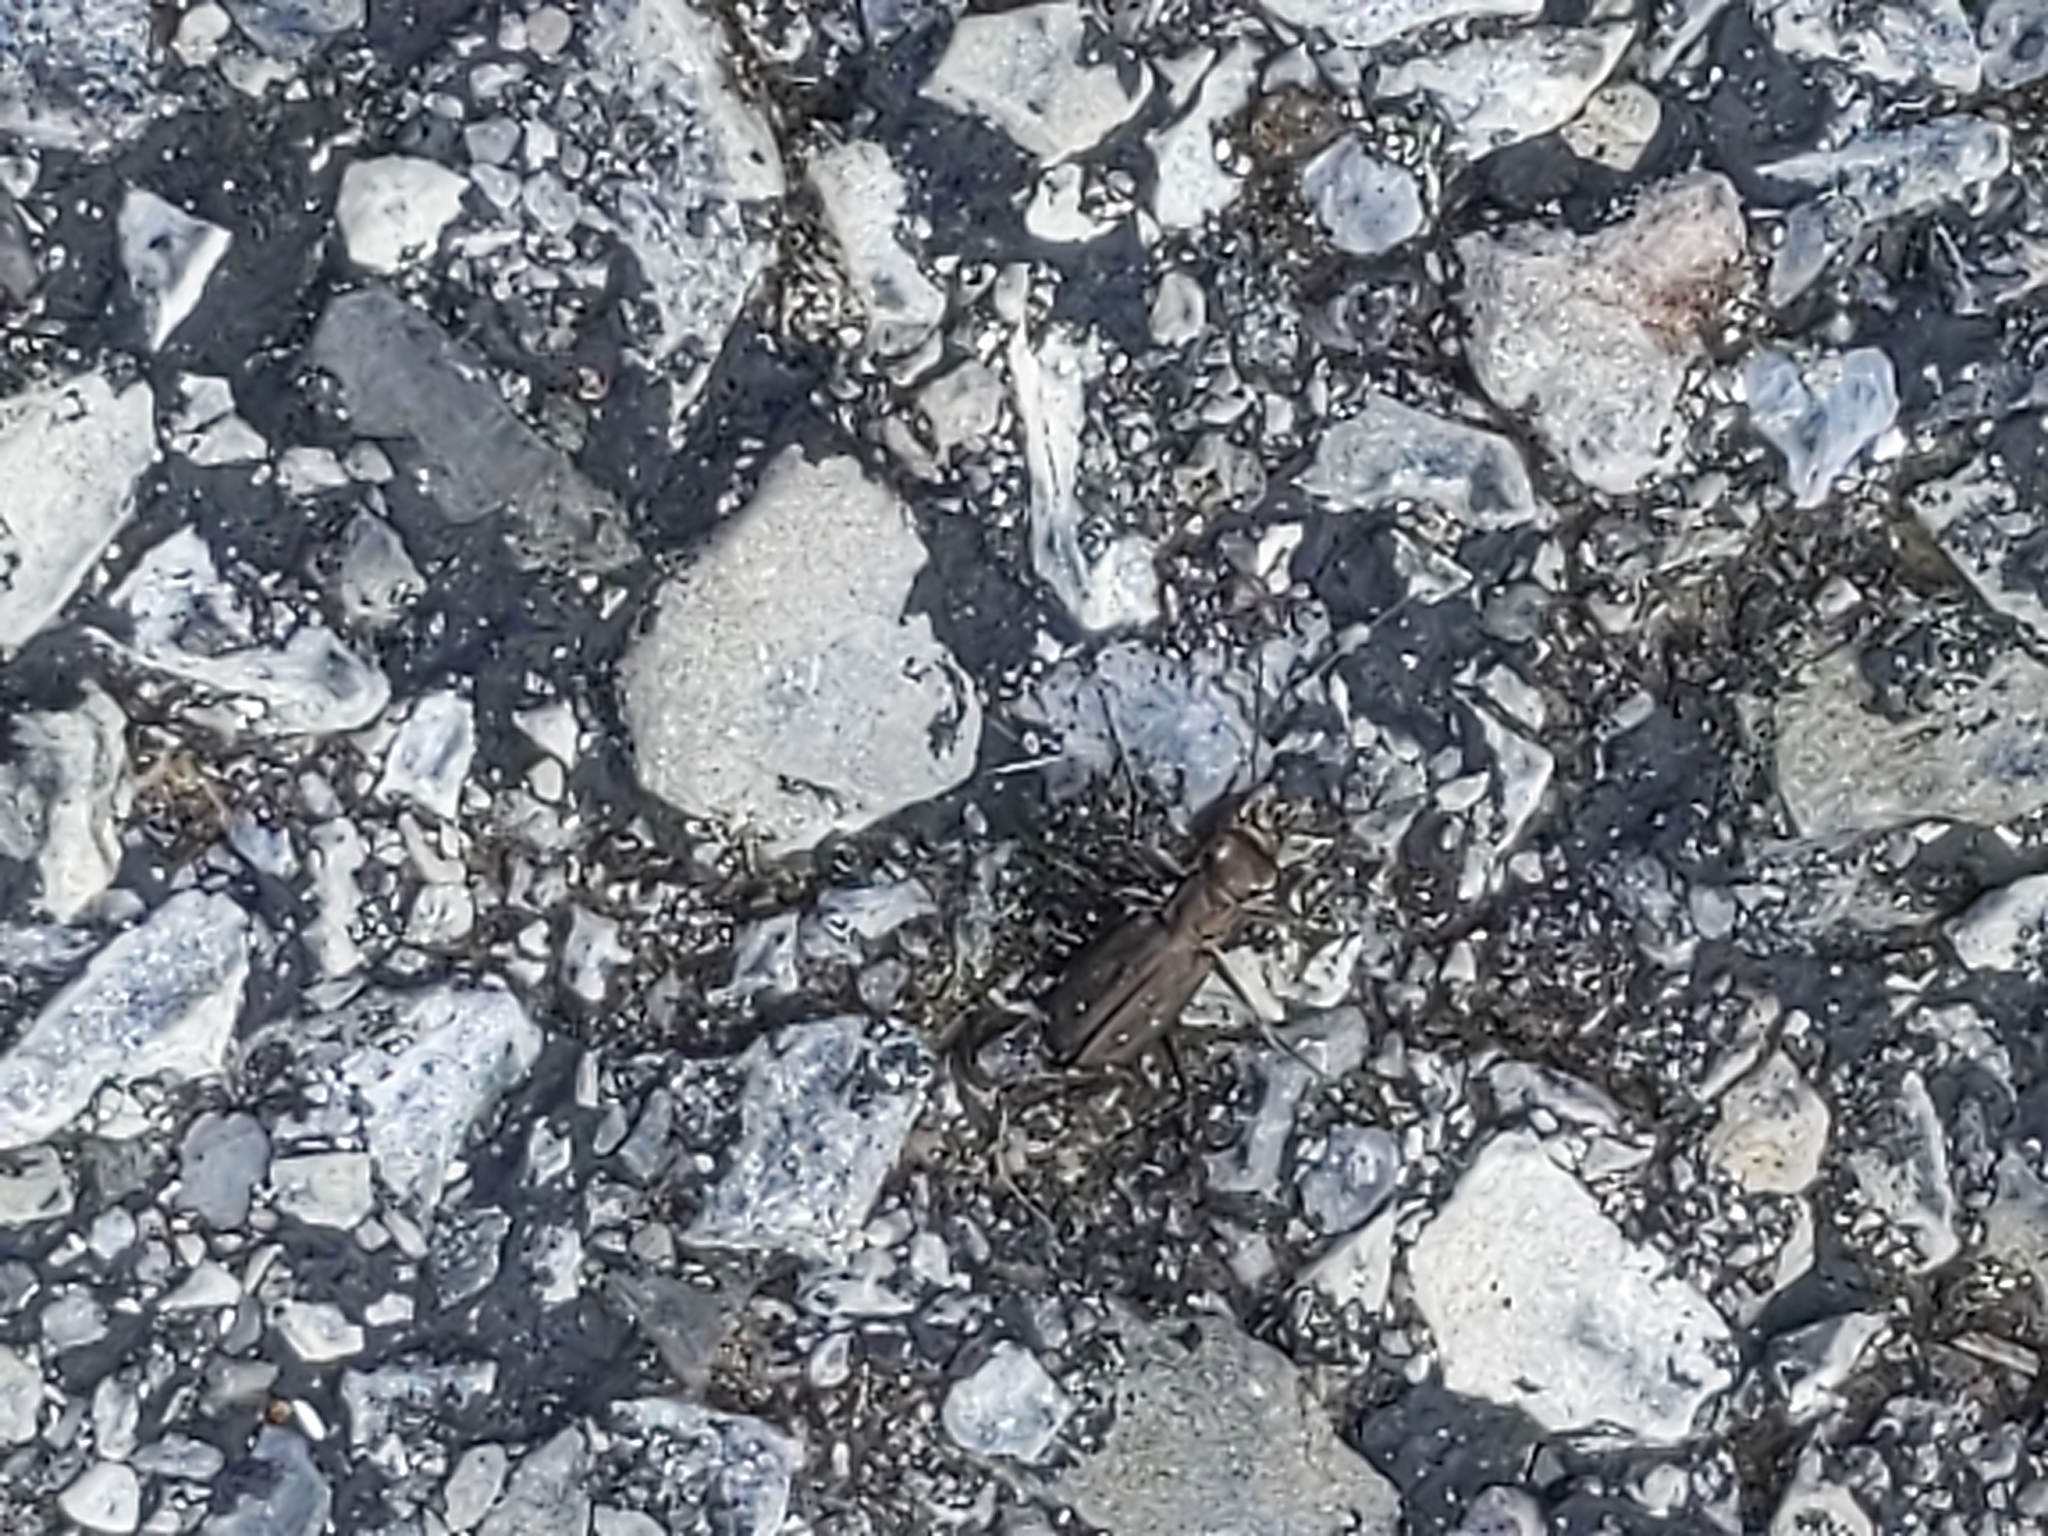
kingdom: Animalia
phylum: Arthropoda
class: Insecta
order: Coleoptera
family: Carabidae
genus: Cicindela
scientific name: Cicindela punctulata
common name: Punctured tiger beetle
